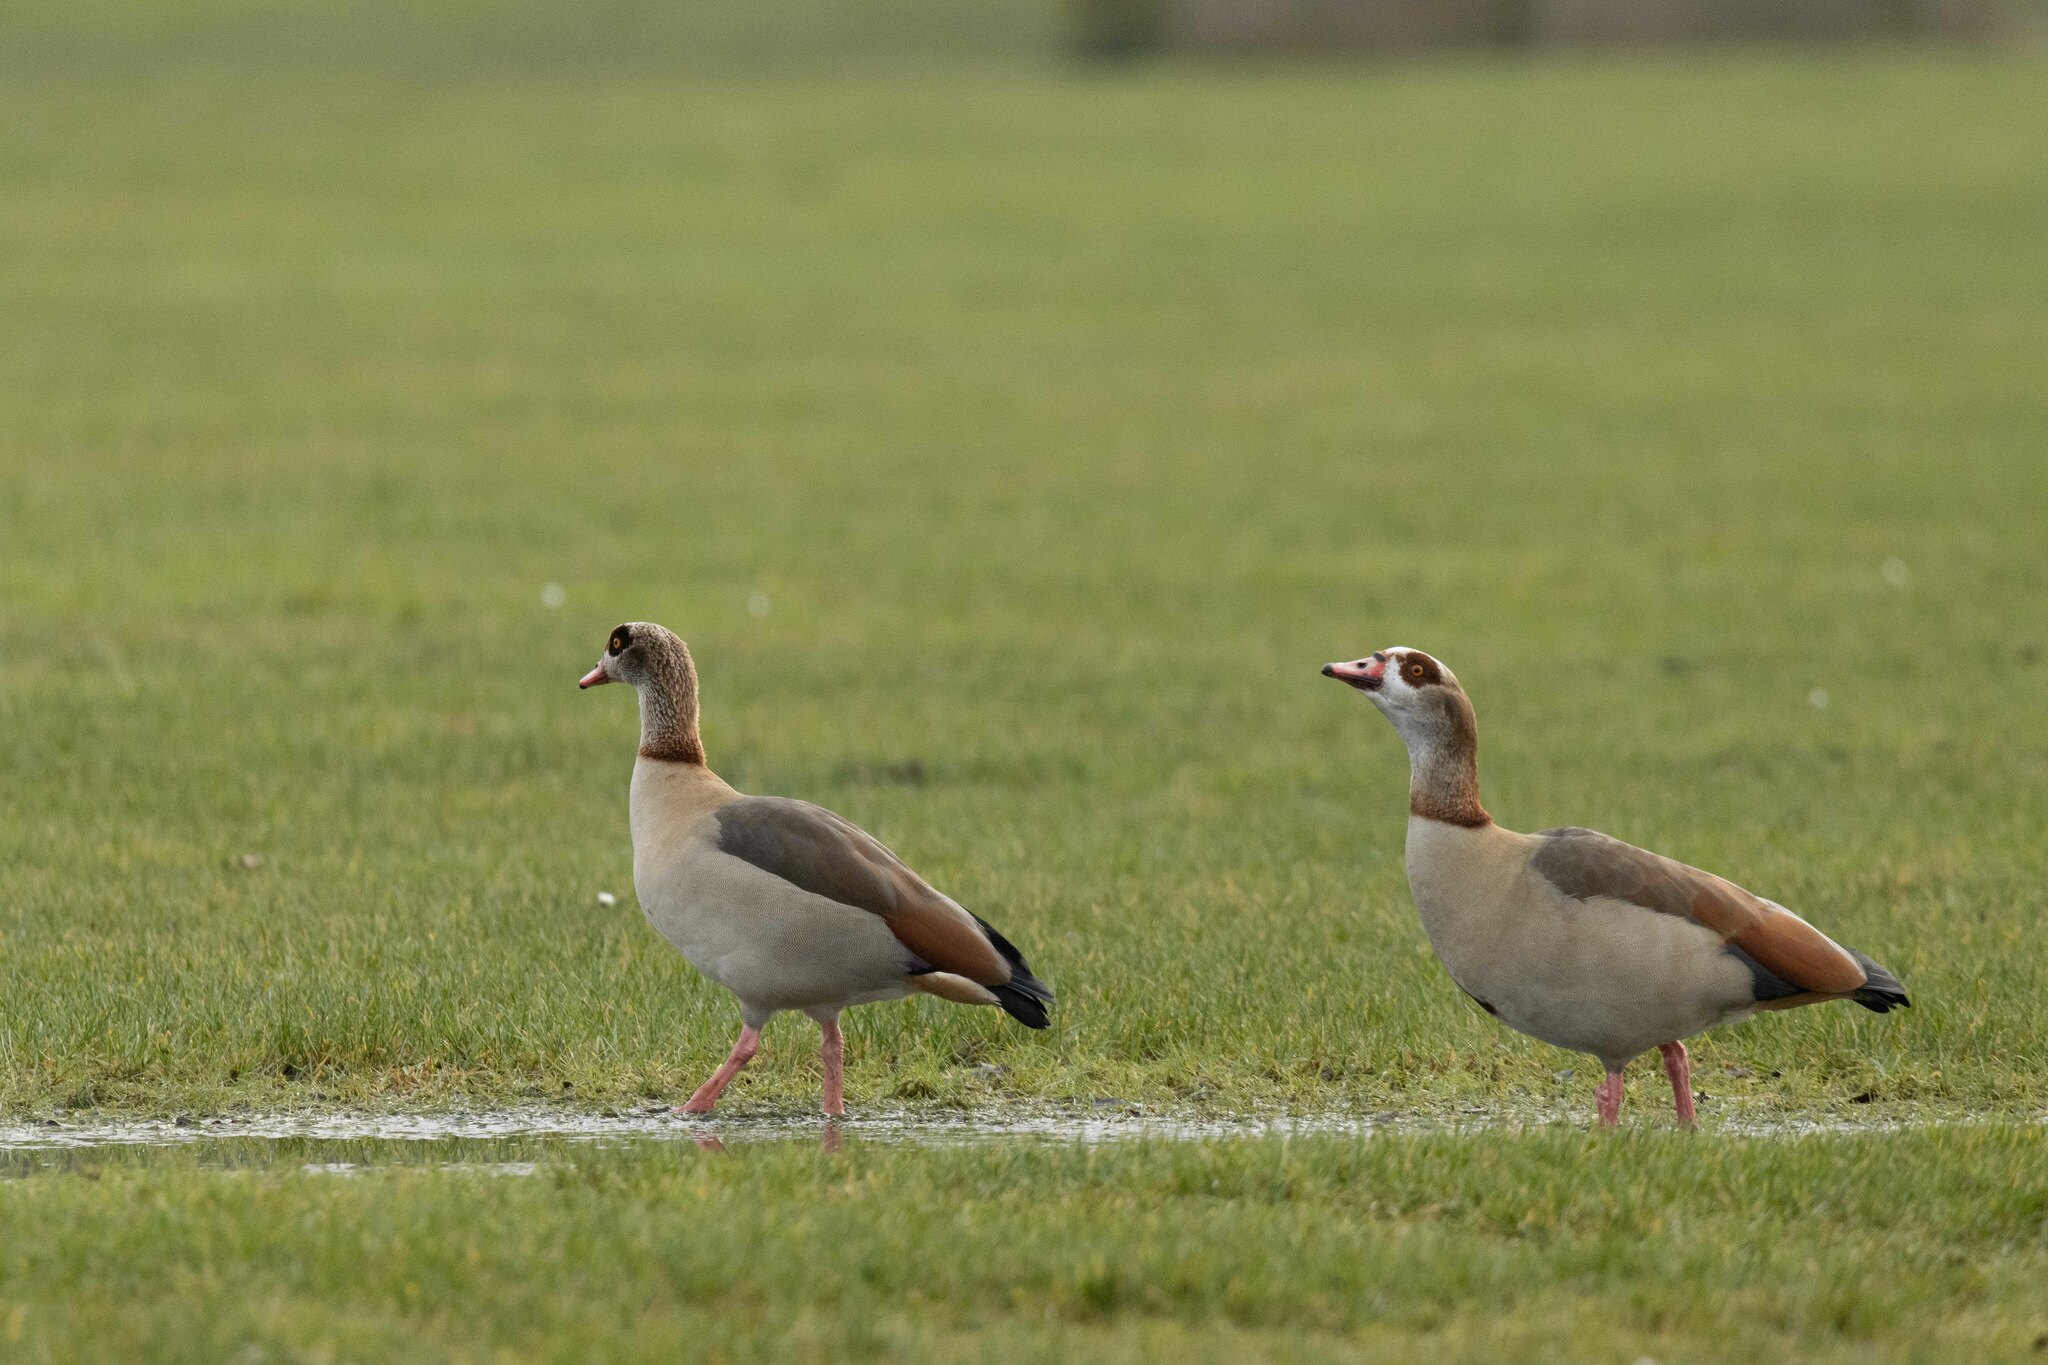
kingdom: Animalia
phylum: Chordata
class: Aves
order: Anseriformes
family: Anatidae
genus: Alopochen
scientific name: Alopochen aegyptiaca
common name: Egyptian goose
